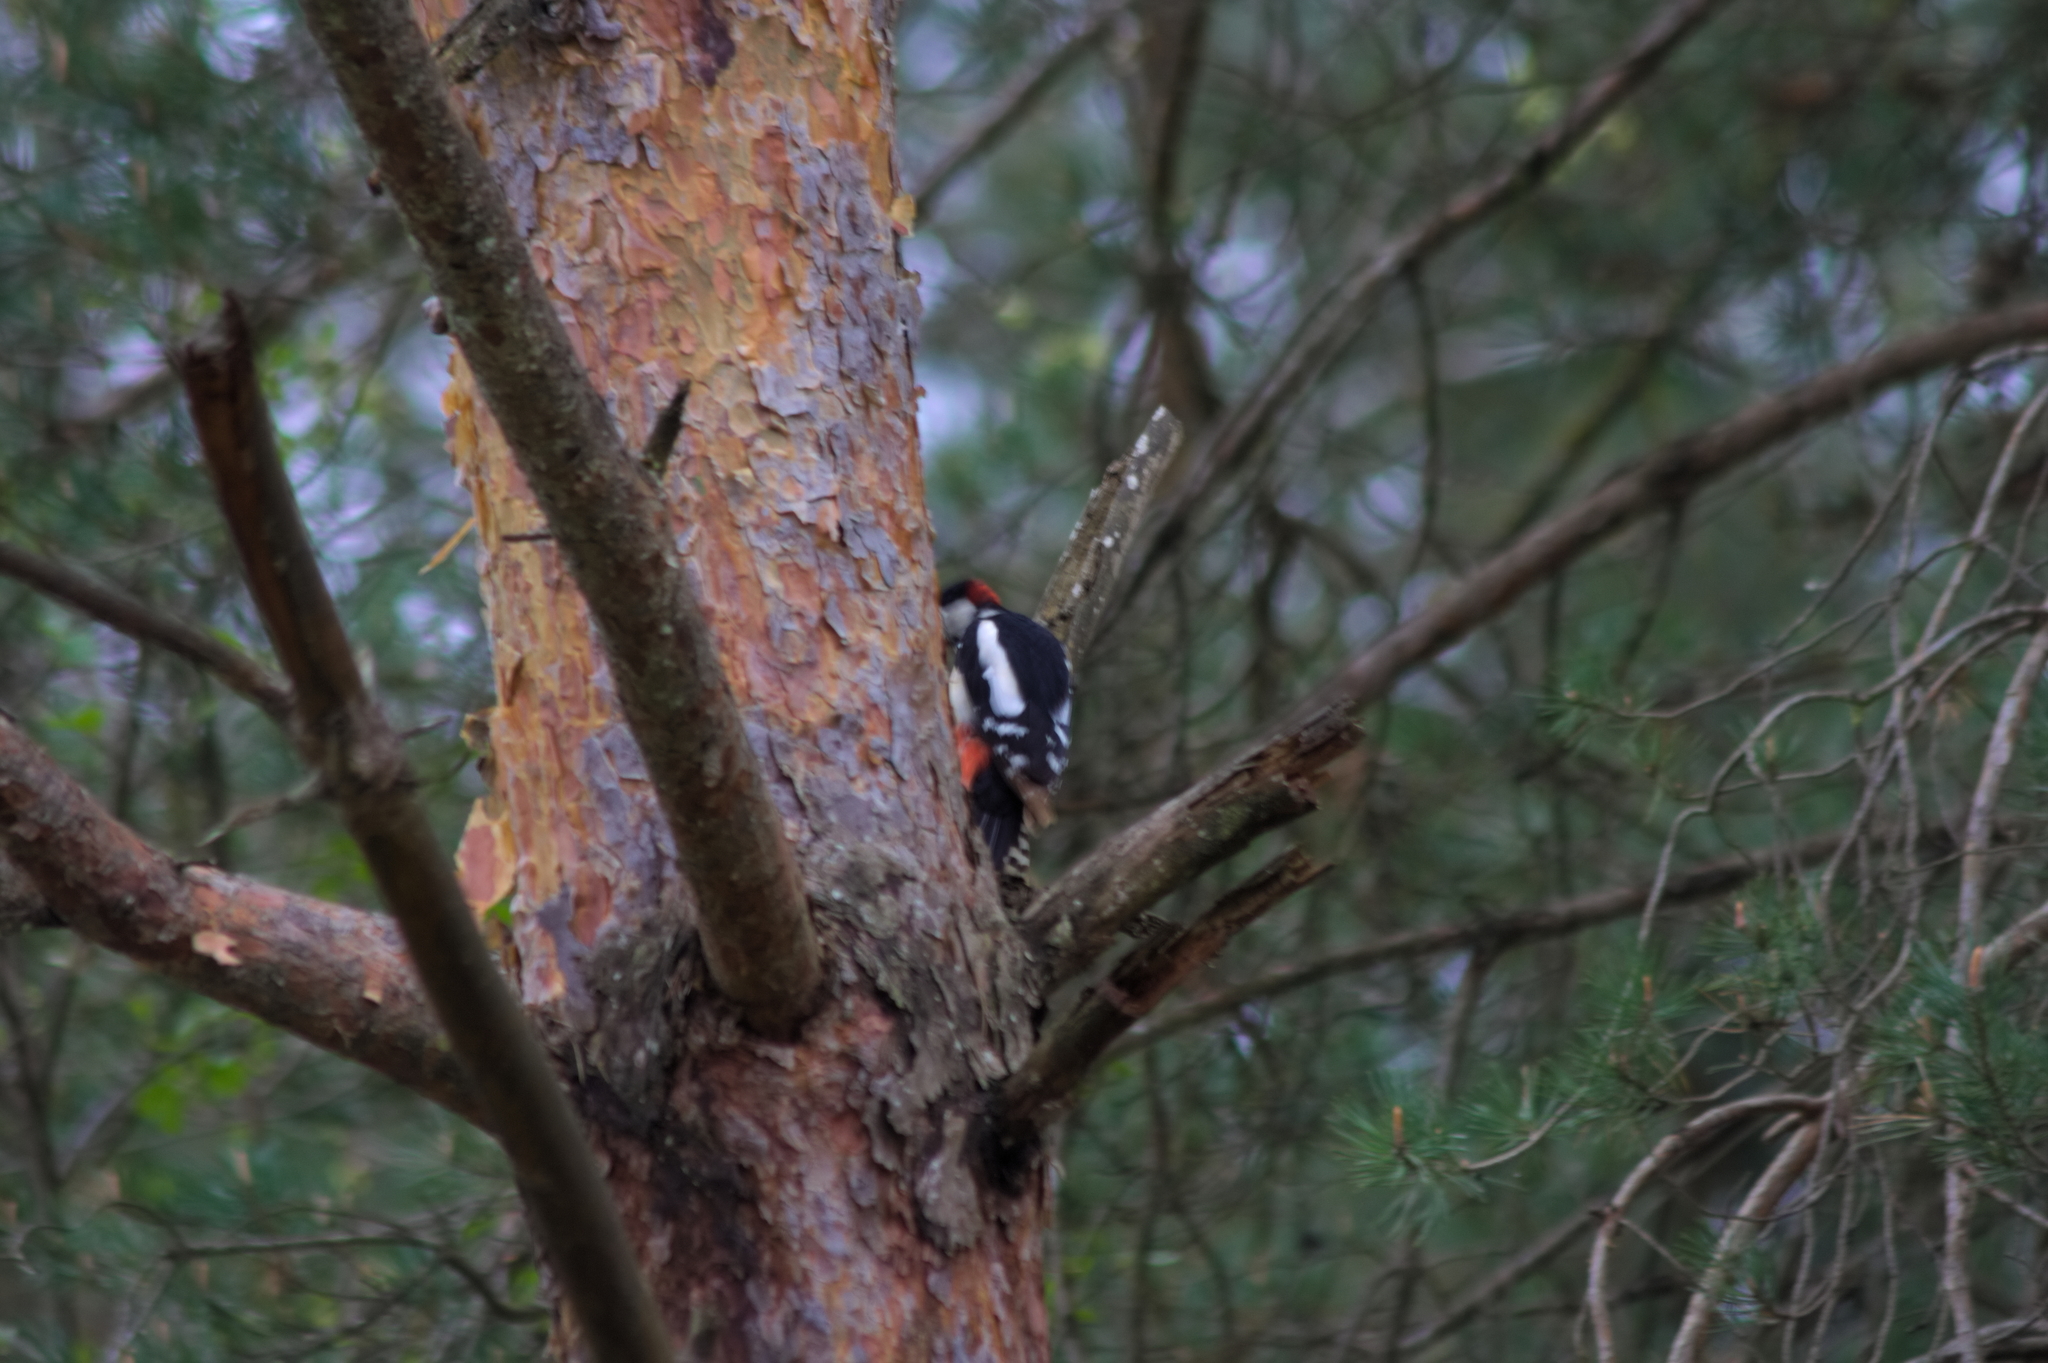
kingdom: Animalia
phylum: Chordata
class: Aves
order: Piciformes
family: Picidae
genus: Dendrocopos
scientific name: Dendrocopos major
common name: Great spotted woodpecker
